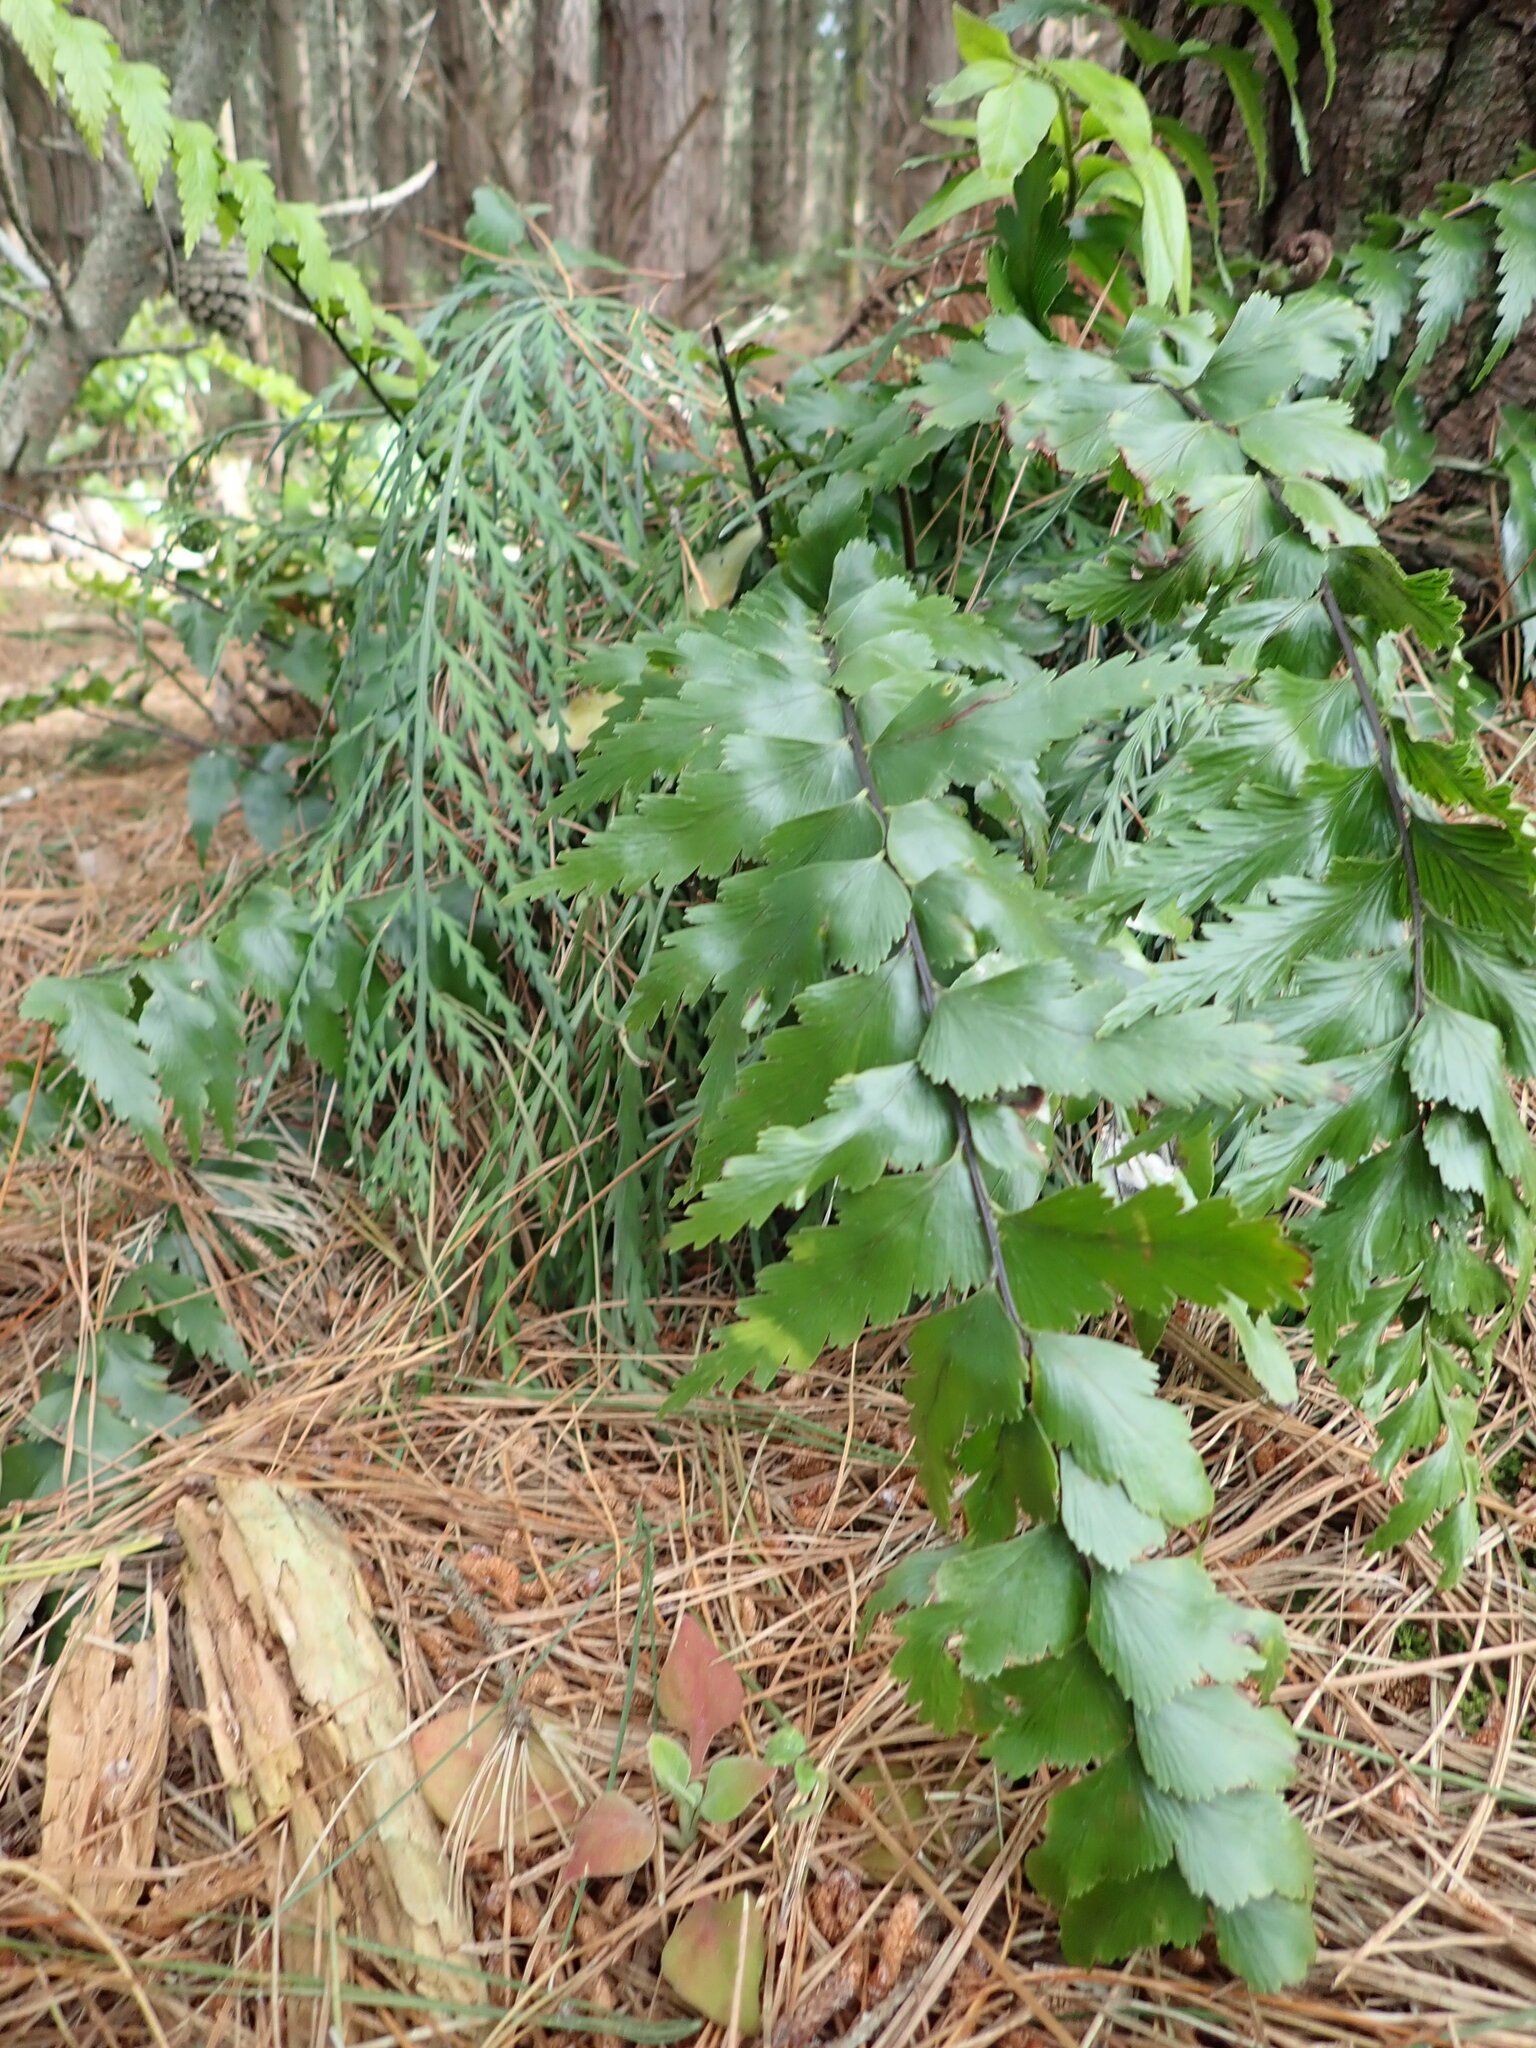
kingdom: Plantae
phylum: Tracheophyta
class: Polypodiopsida
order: Polypodiales
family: Aspleniaceae
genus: Asplenium
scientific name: Asplenium polyodon
